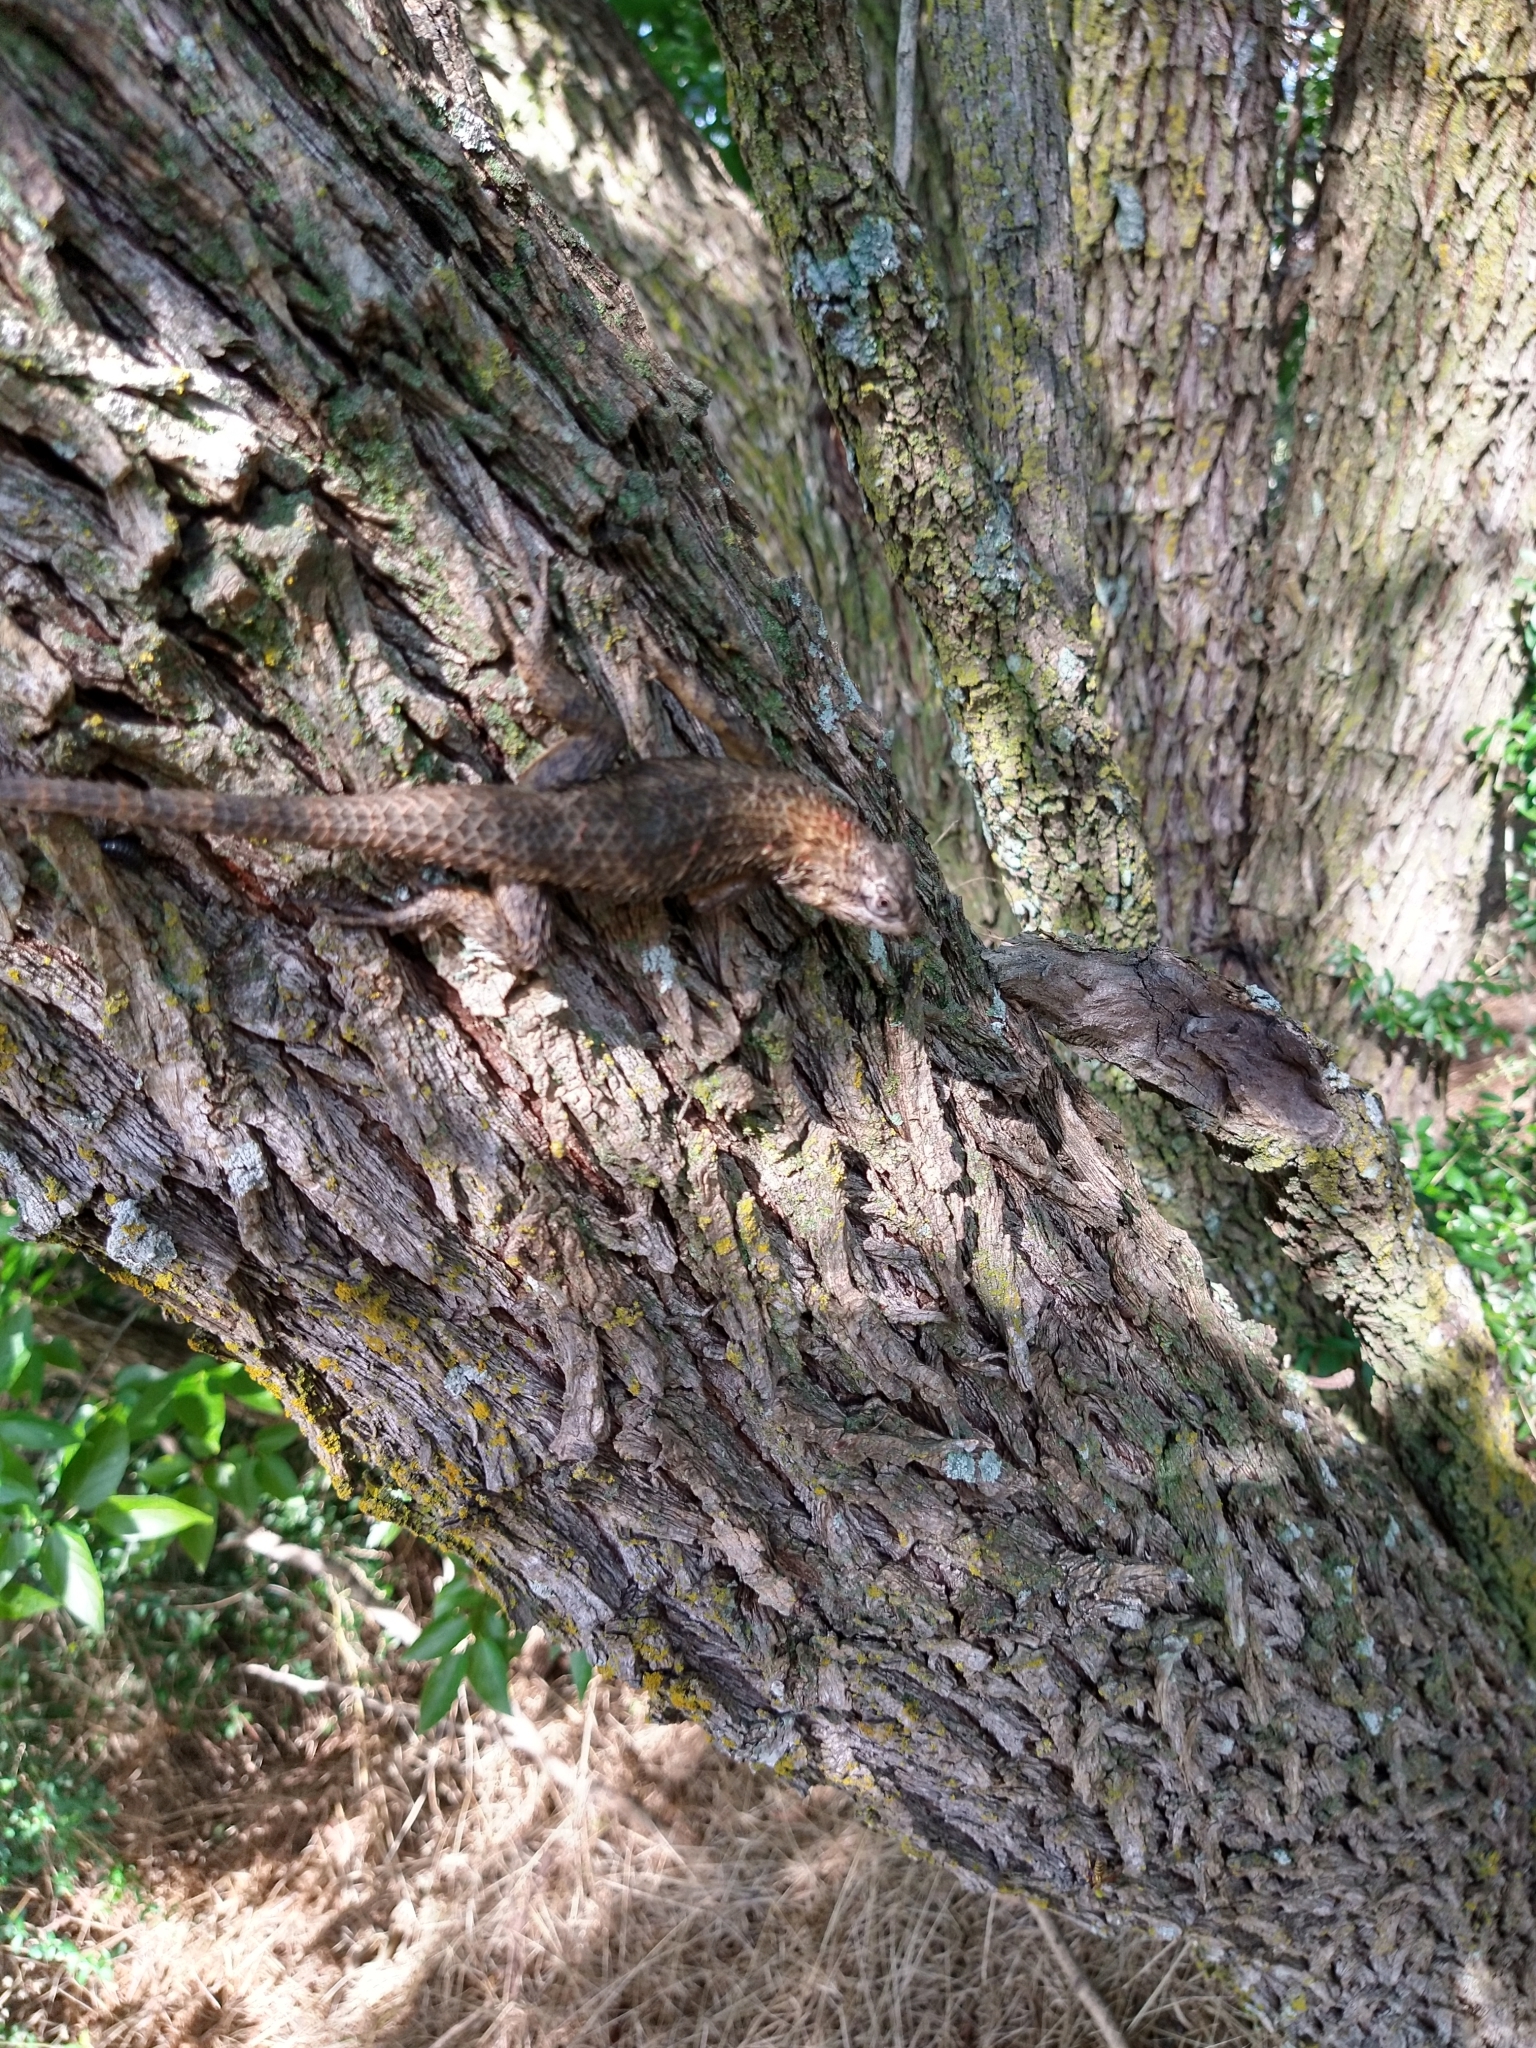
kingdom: Animalia
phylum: Chordata
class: Squamata
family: Phrynosomatidae
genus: Sceloporus
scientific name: Sceloporus olivaceus
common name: Texas spiny lizard
